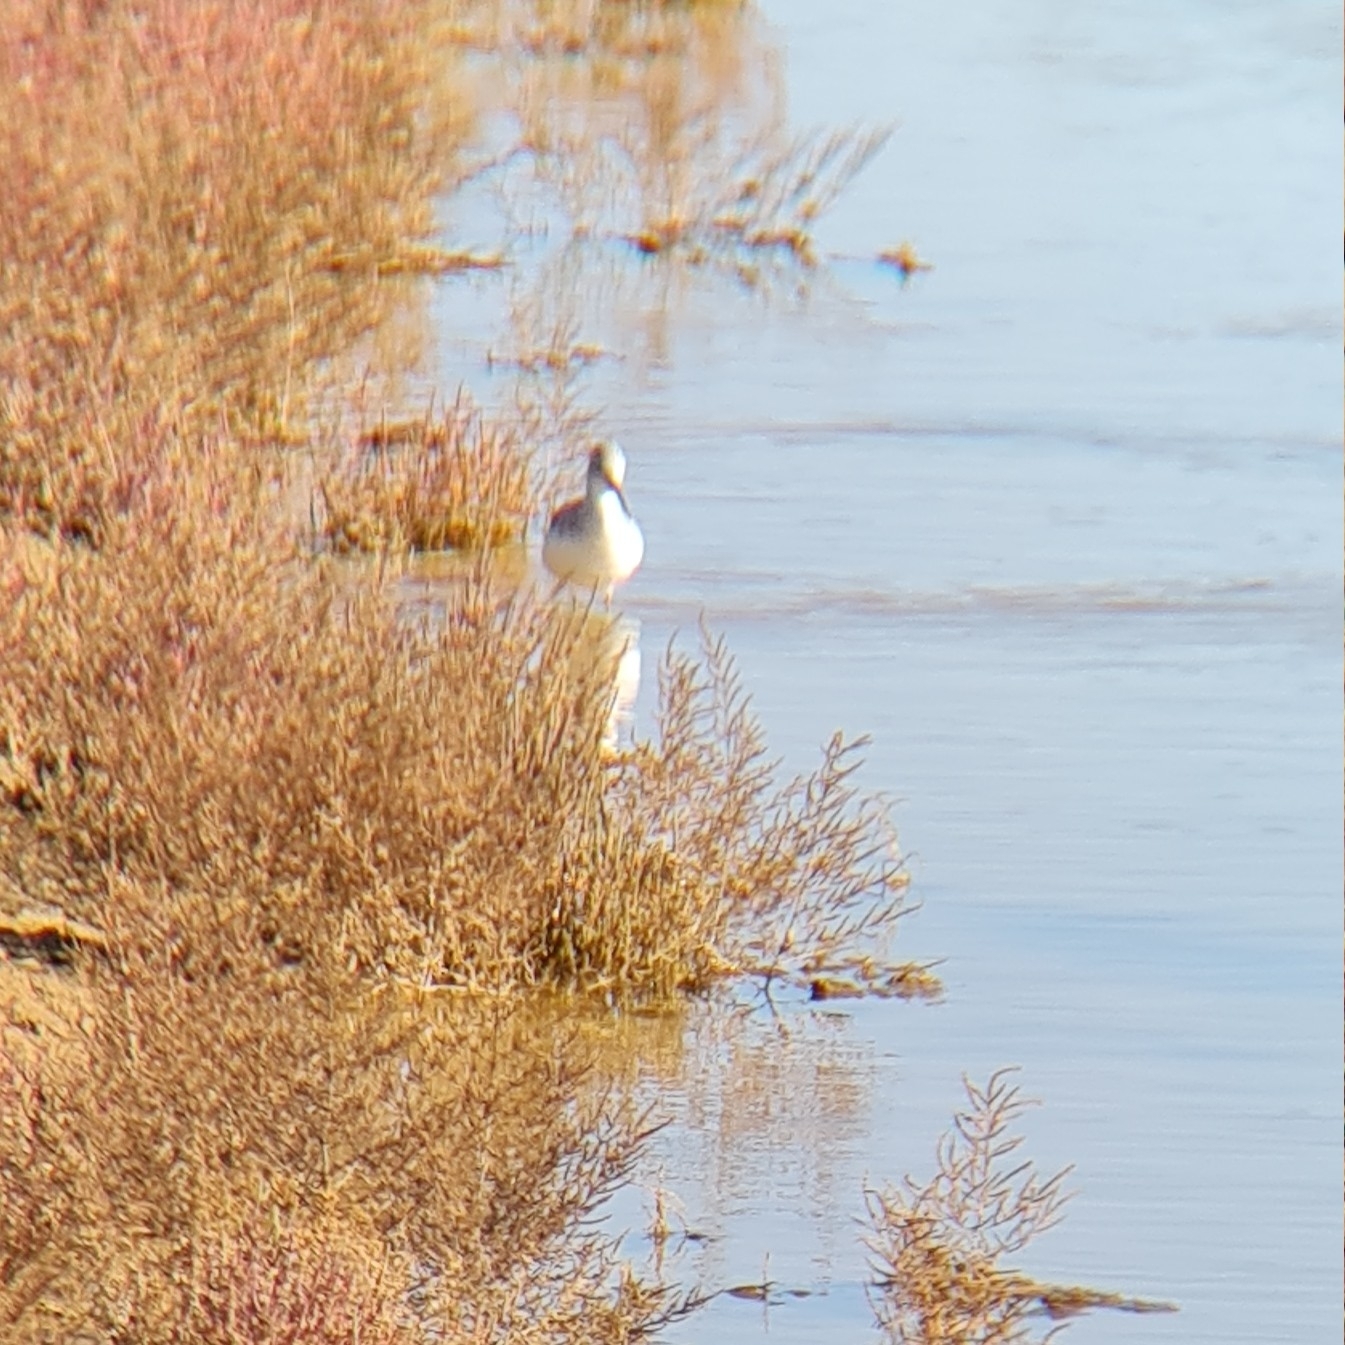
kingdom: Animalia
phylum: Chordata
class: Aves
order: Charadriiformes
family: Scolopacidae
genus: Tringa
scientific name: Tringa nebularia
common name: Common greenshank
